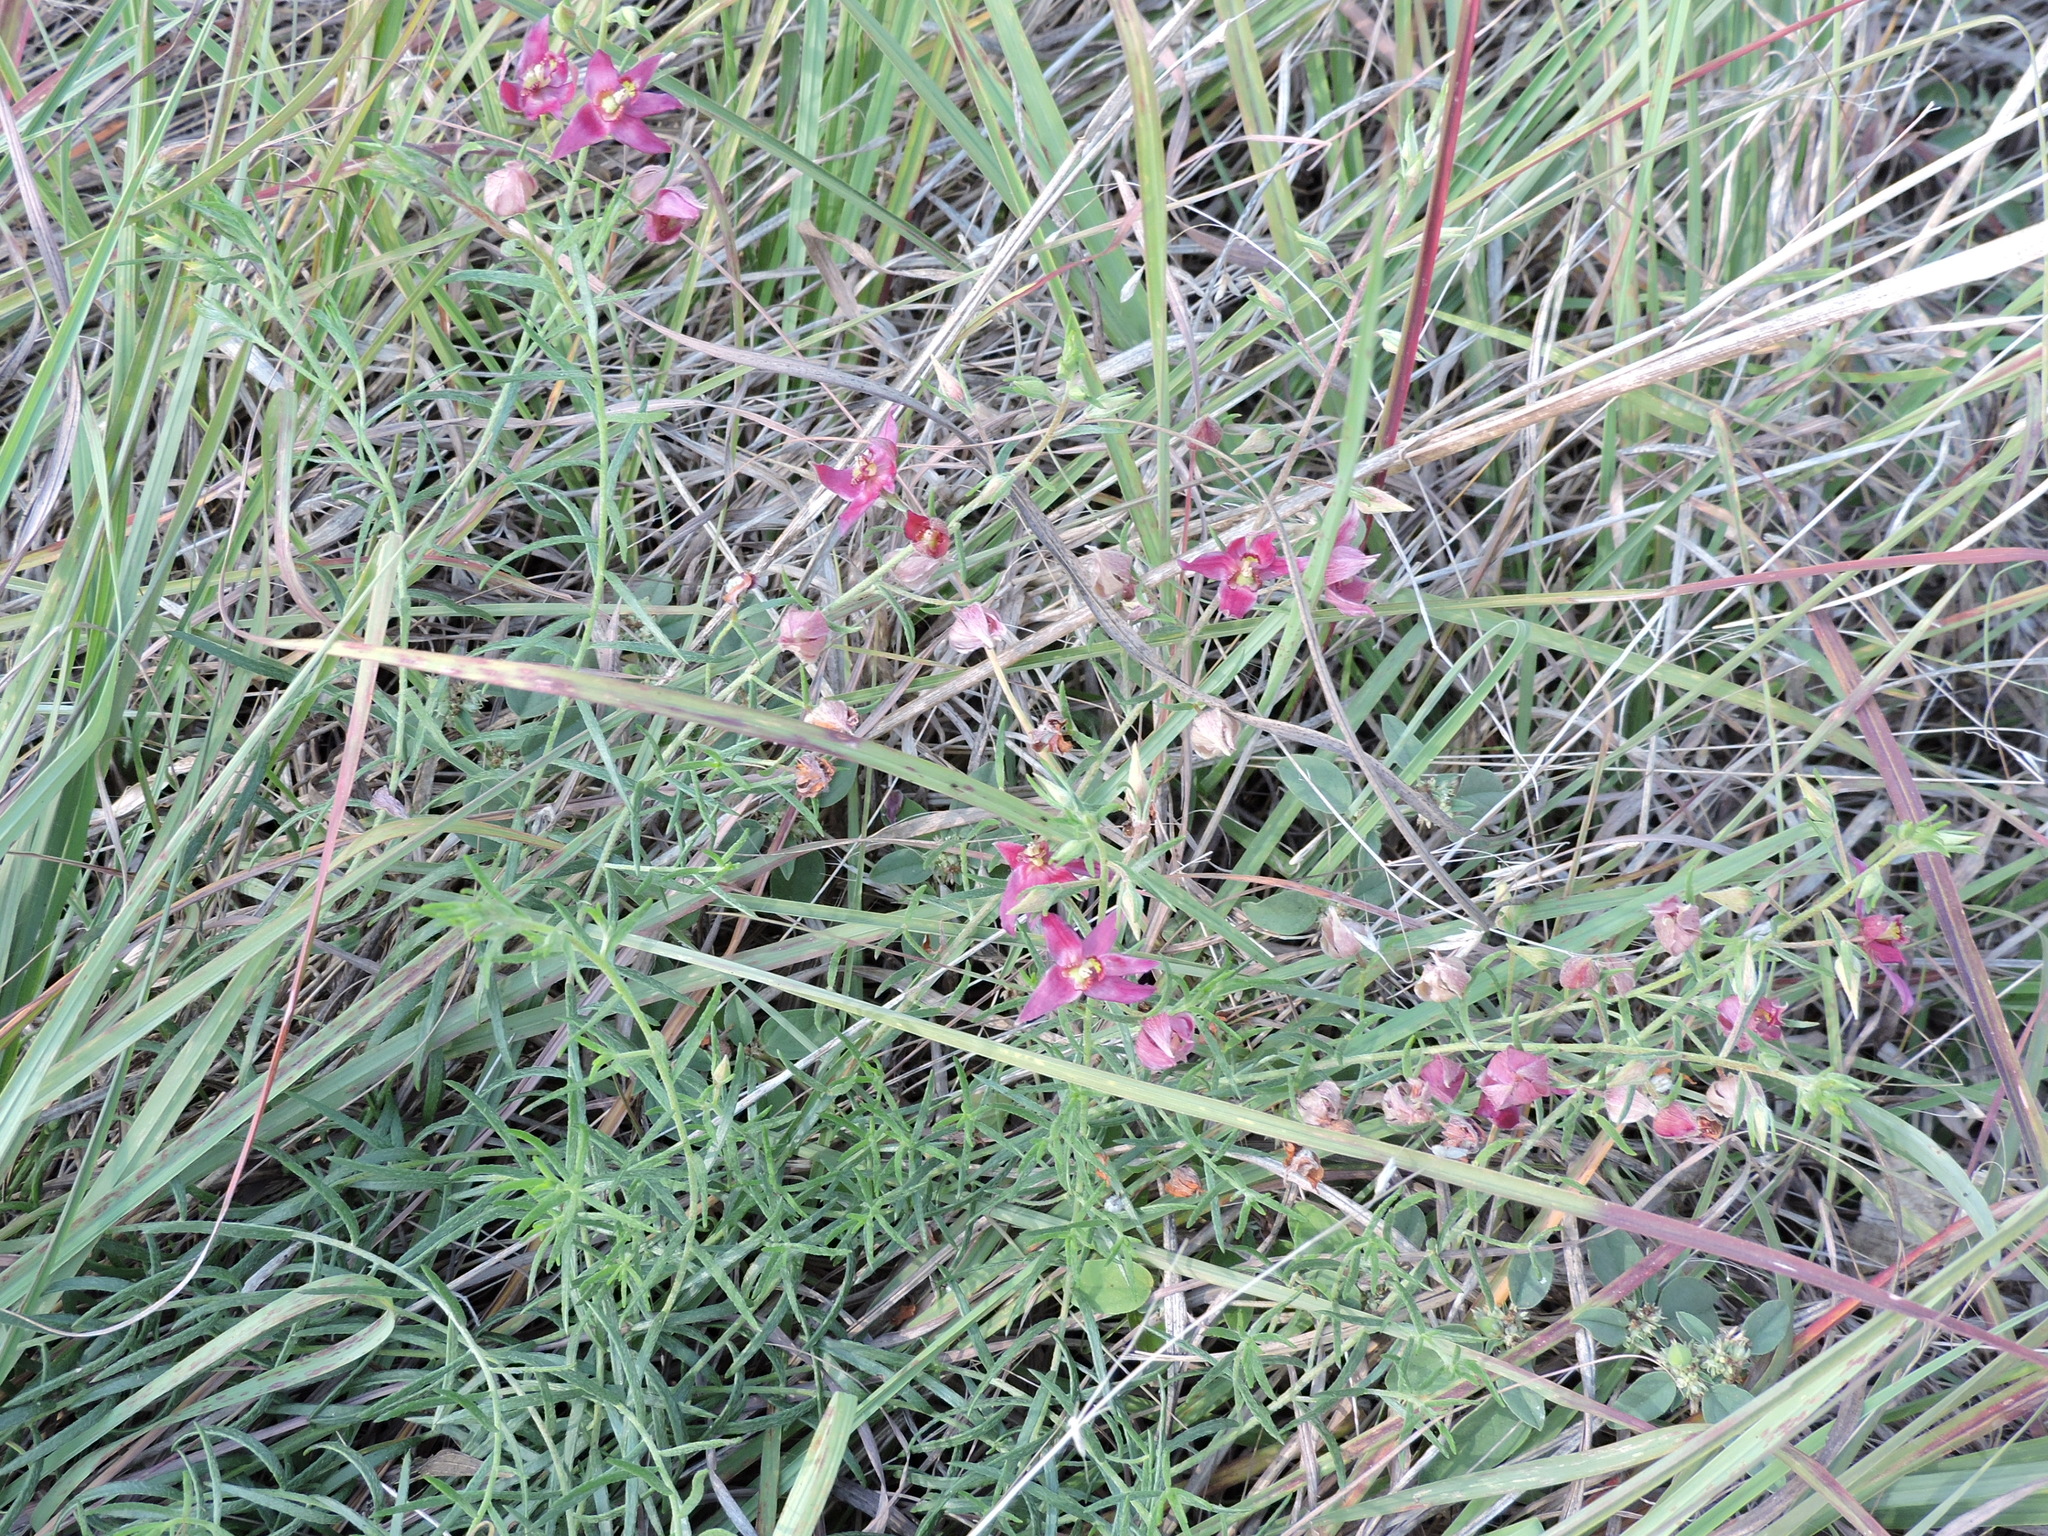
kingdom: Plantae
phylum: Tracheophyta
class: Magnoliopsida
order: Zygophyllales
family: Krameriaceae
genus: Krameria
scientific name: Krameria lanceolata
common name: Ratany
